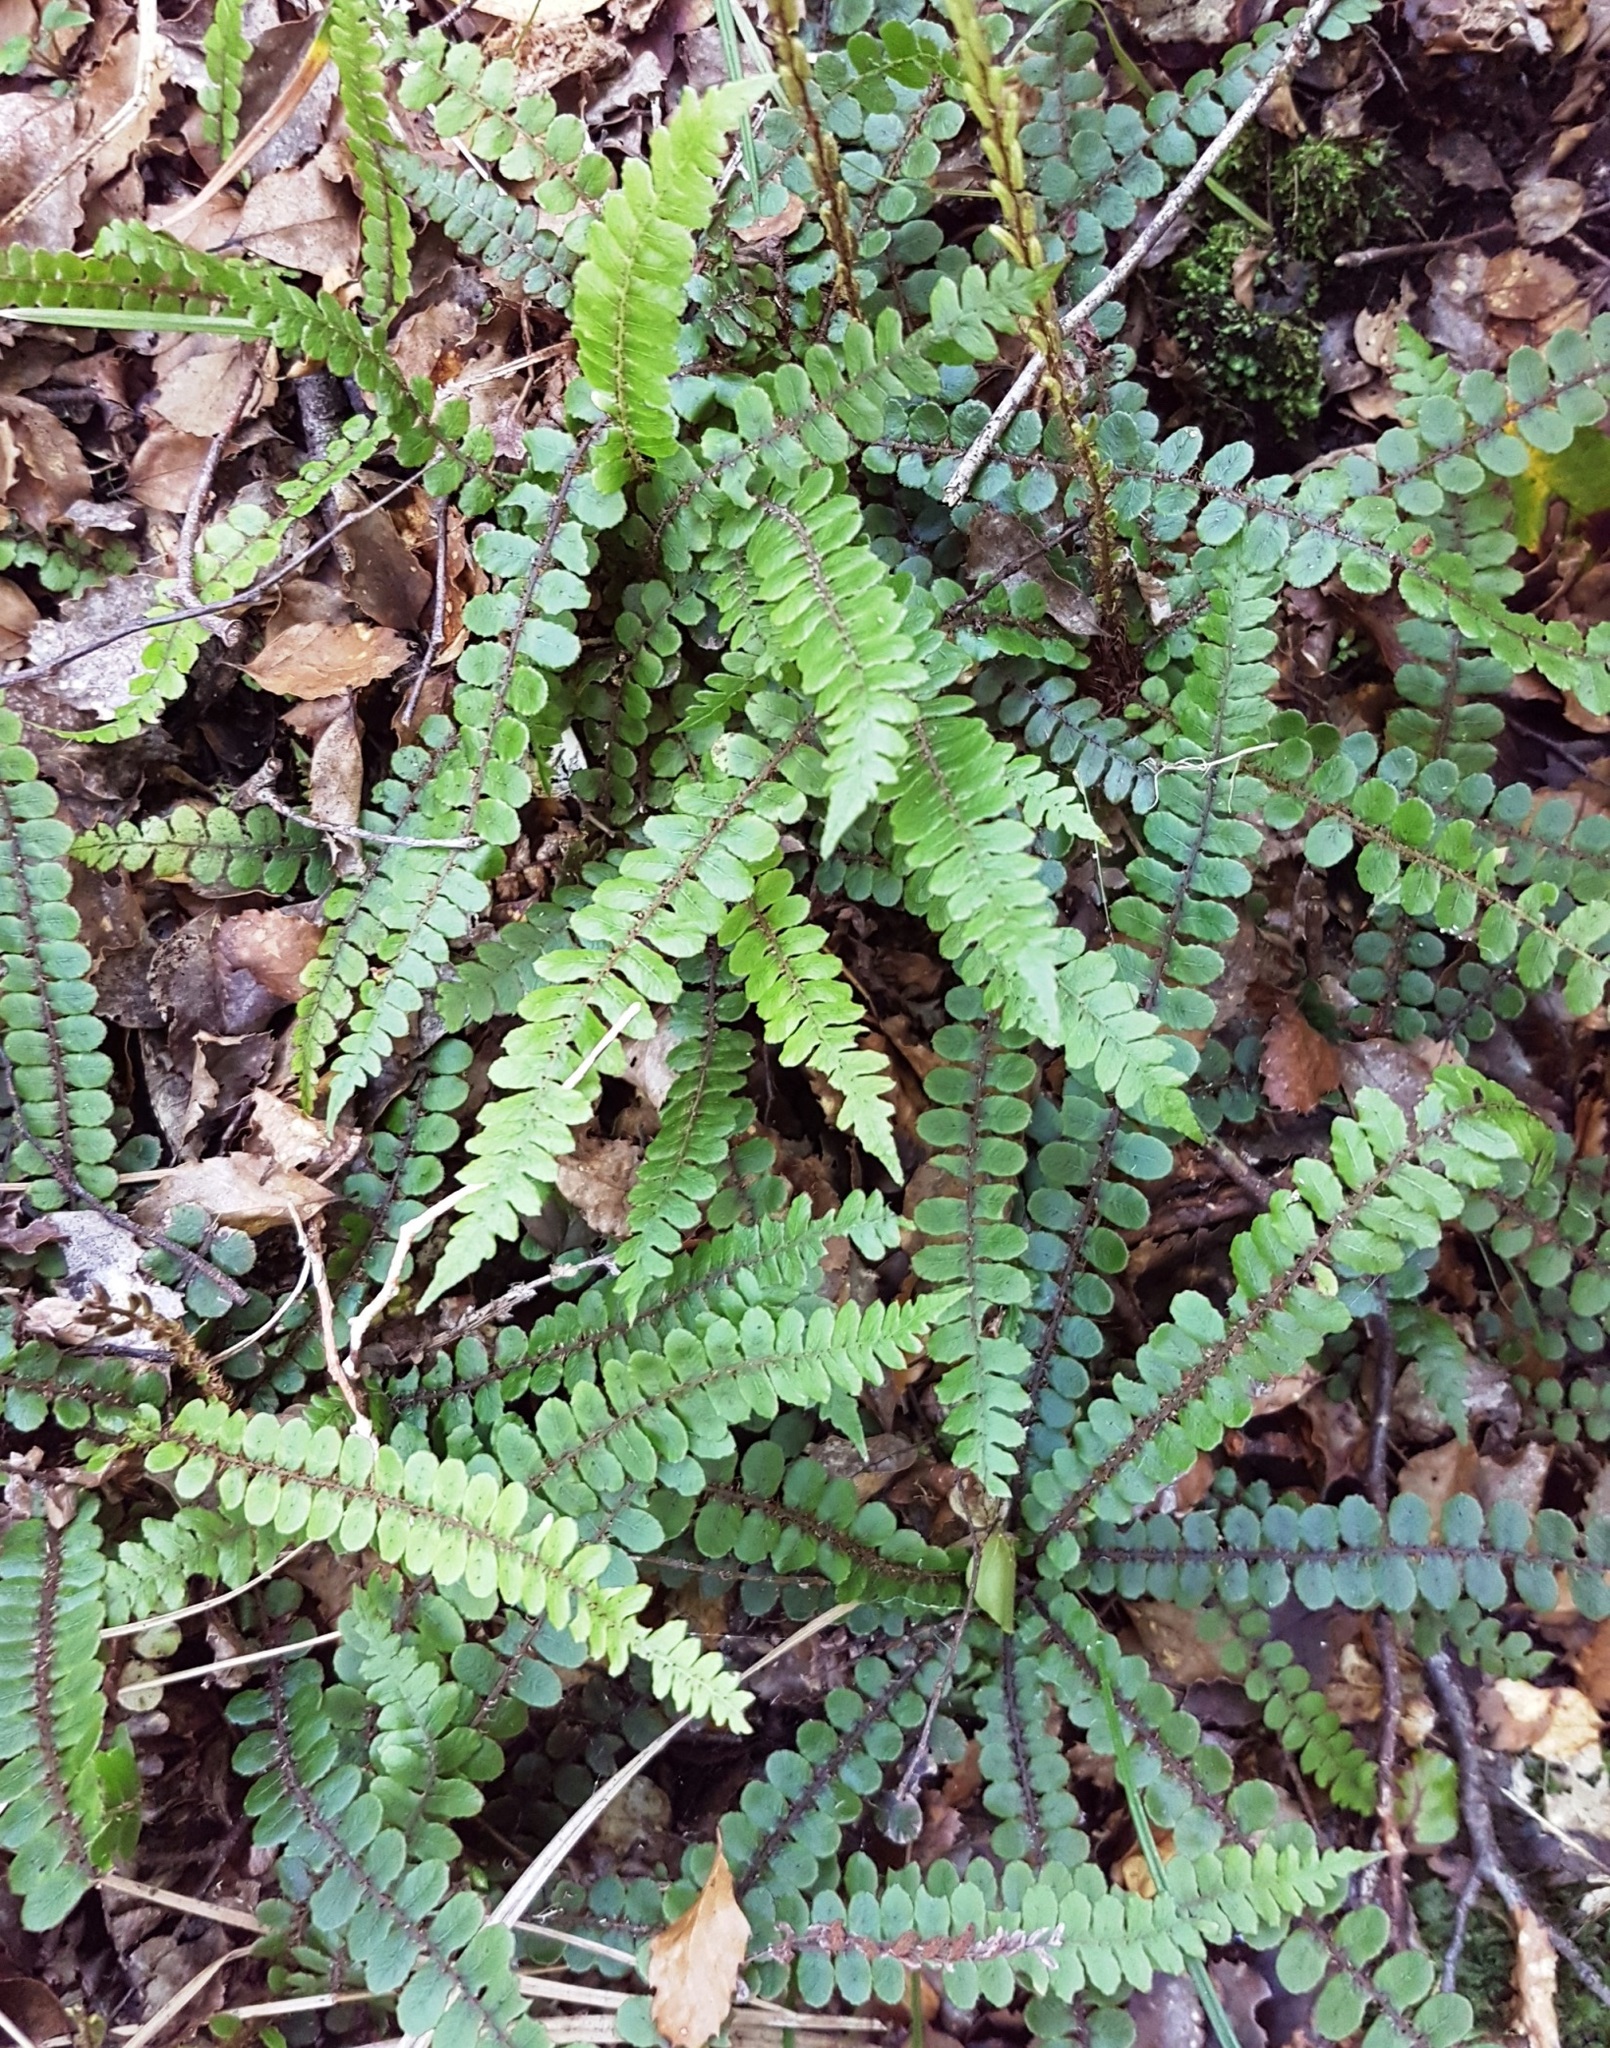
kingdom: Plantae
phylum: Tracheophyta
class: Polypodiopsida
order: Polypodiales
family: Blechnaceae
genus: Cranfillia
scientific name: Cranfillia fluviatilis
